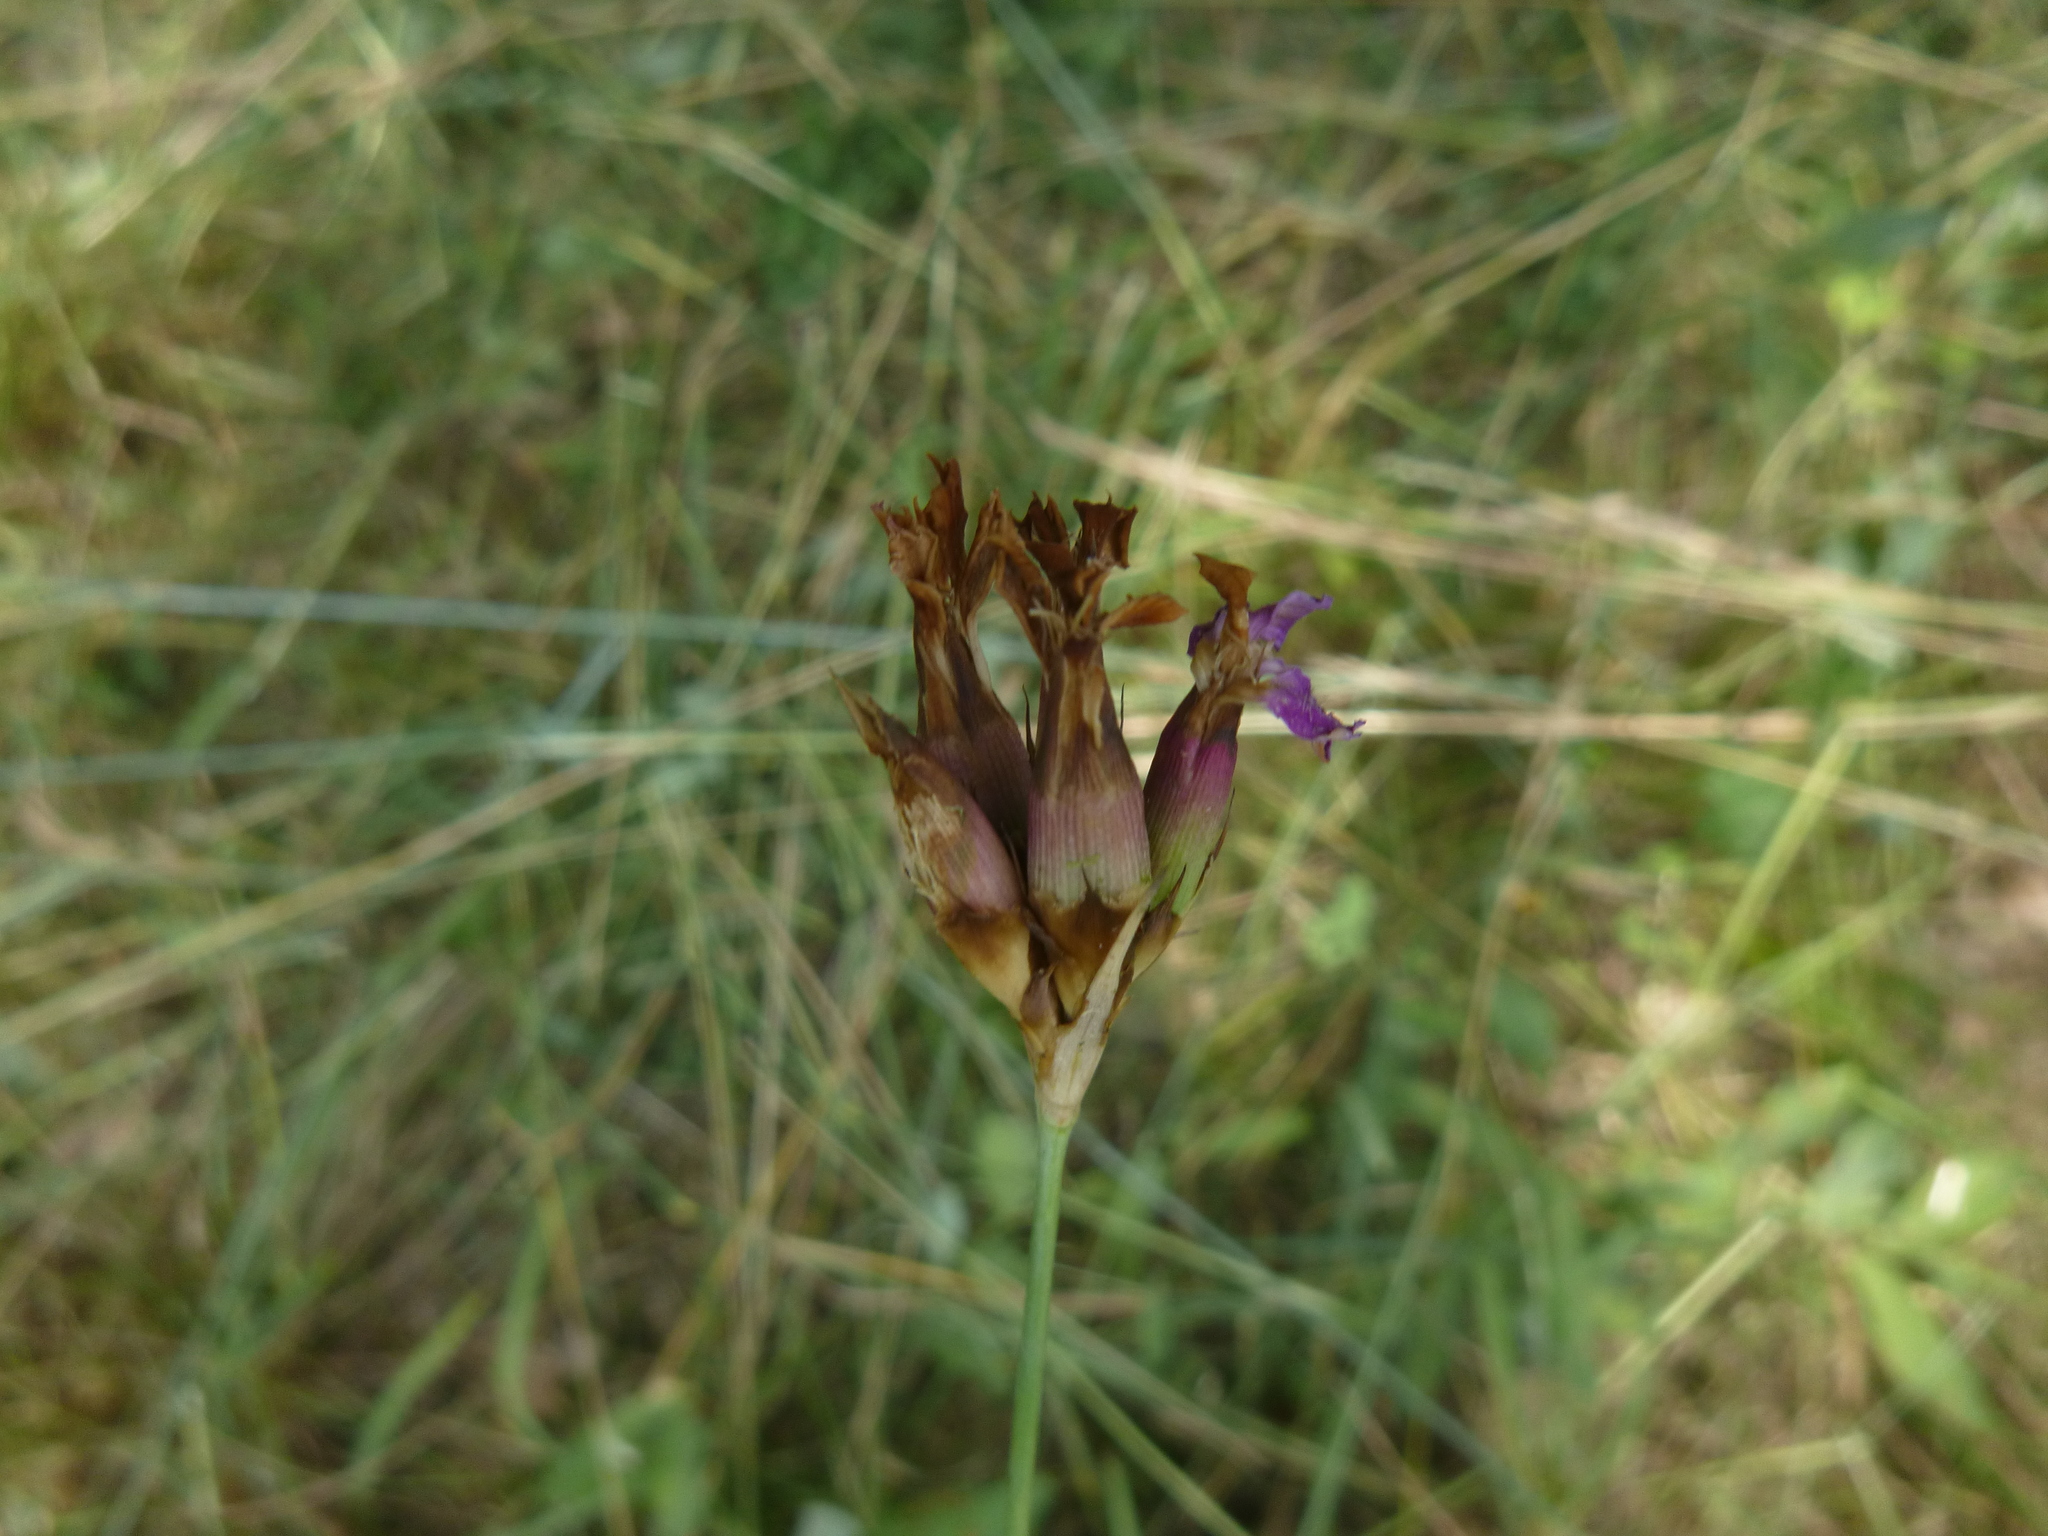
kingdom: Plantae
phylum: Tracheophyta
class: Magnoliopsida
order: Caryophyllales
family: Caryophyllaceae
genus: Dianthus
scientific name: Dianthus carthusianorum
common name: Carthusian pink
